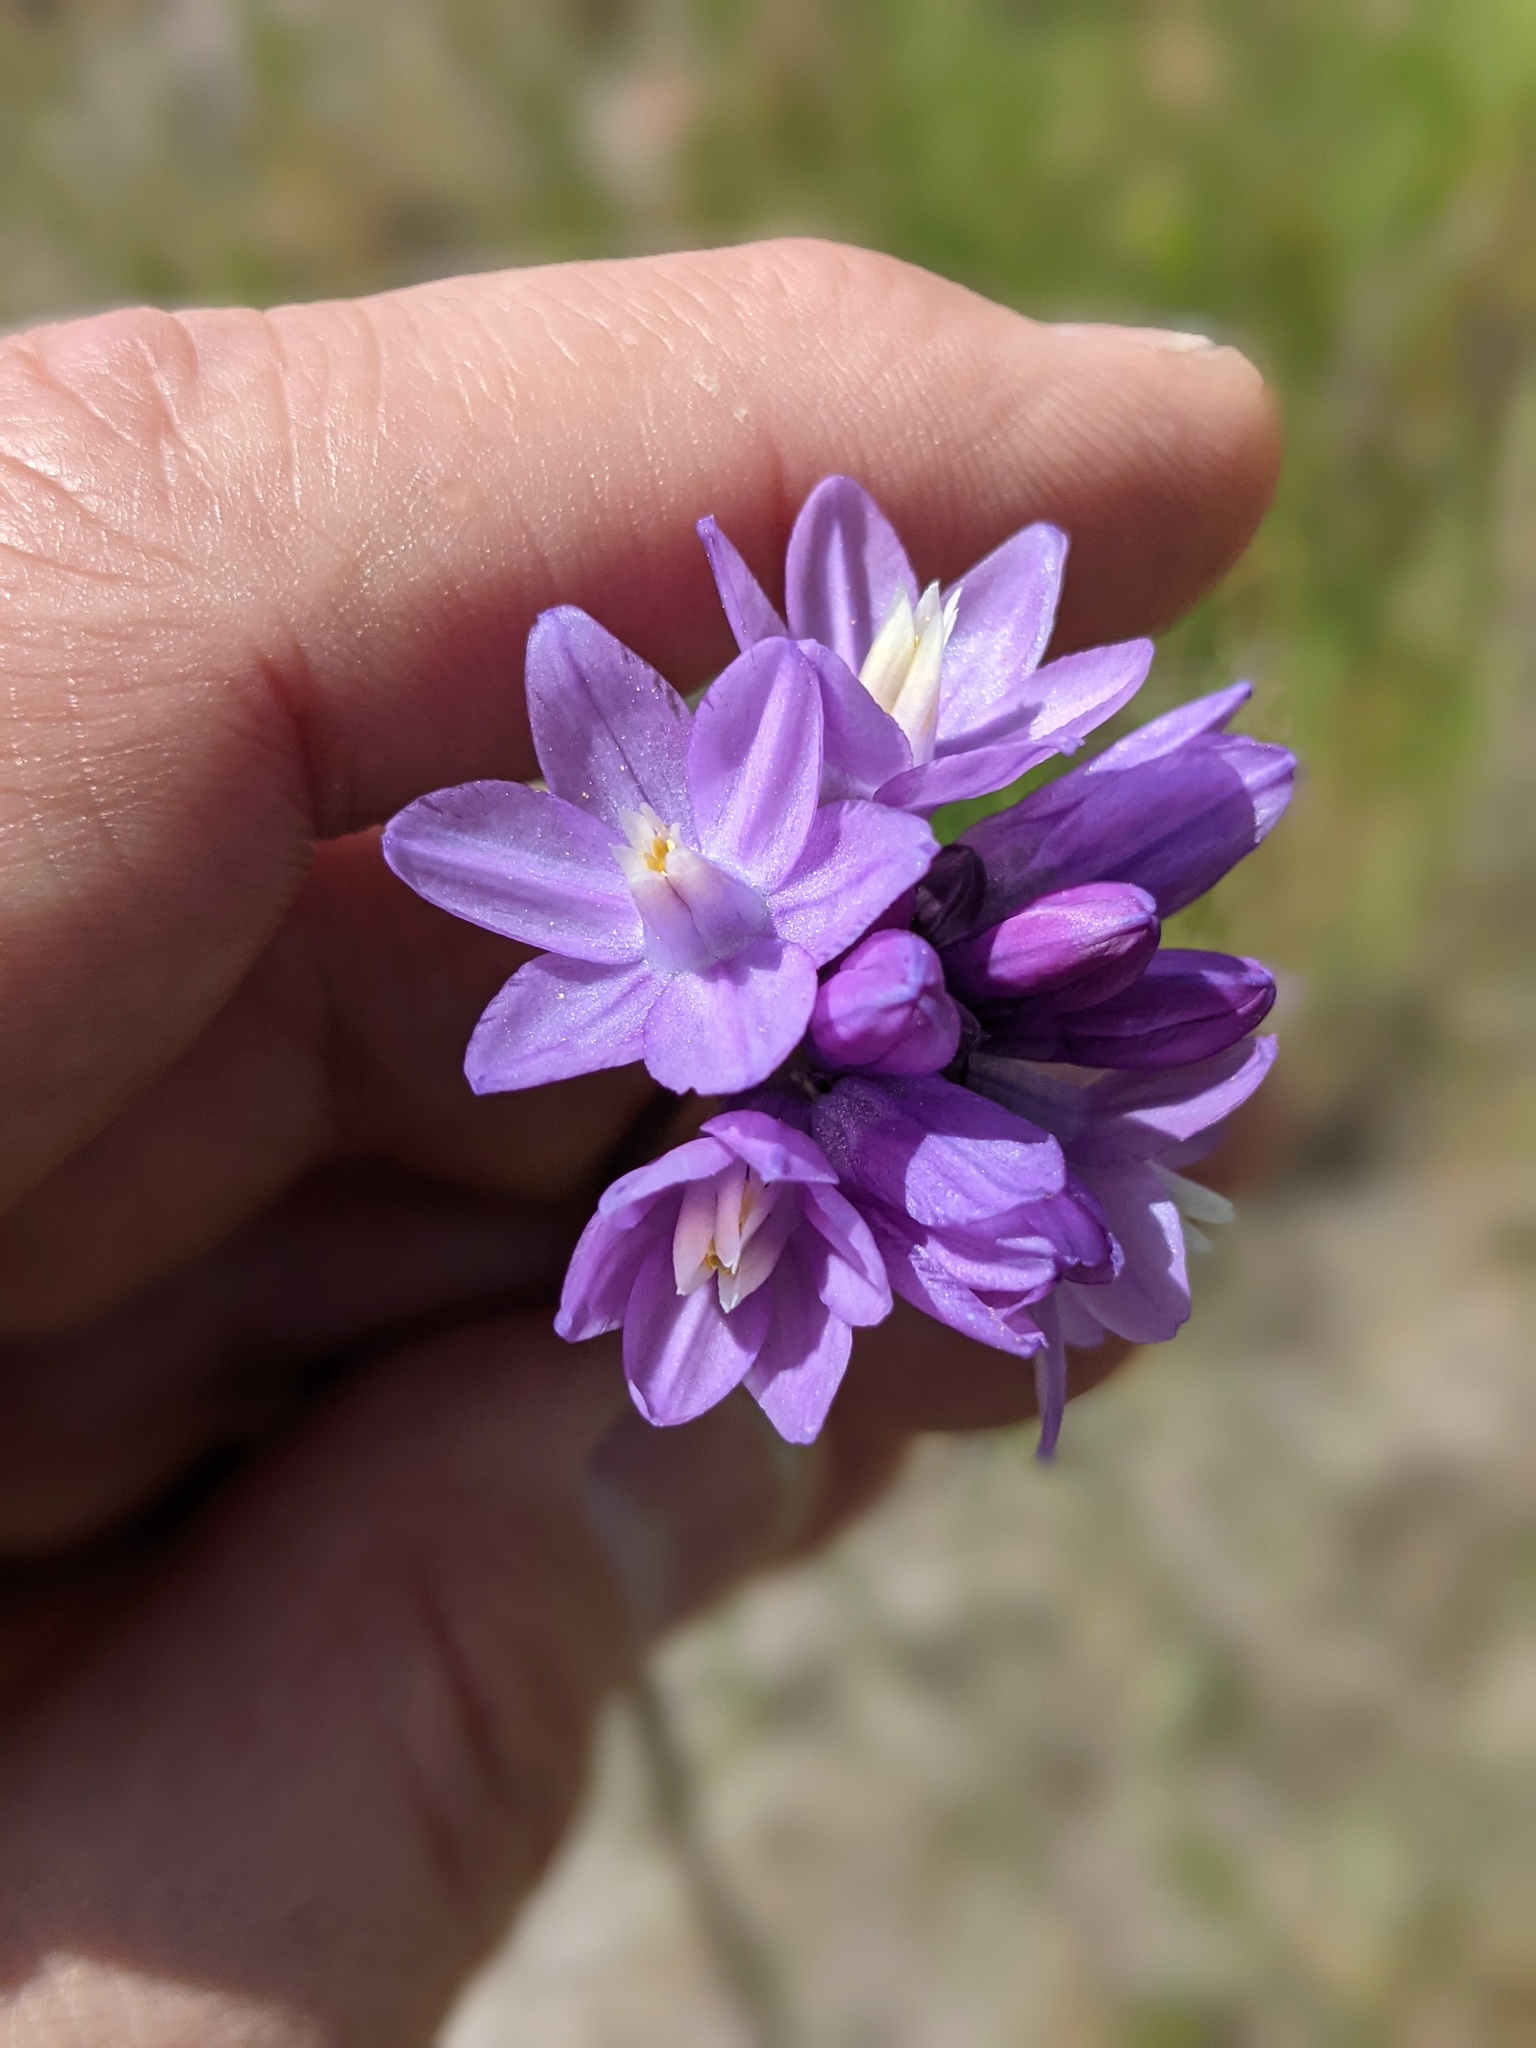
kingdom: Plantae
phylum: Tracheophyta
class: Liliopsida
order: Asparagales
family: Asparagaceae
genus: Dipterostemon
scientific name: Dipterostemon capitatus
